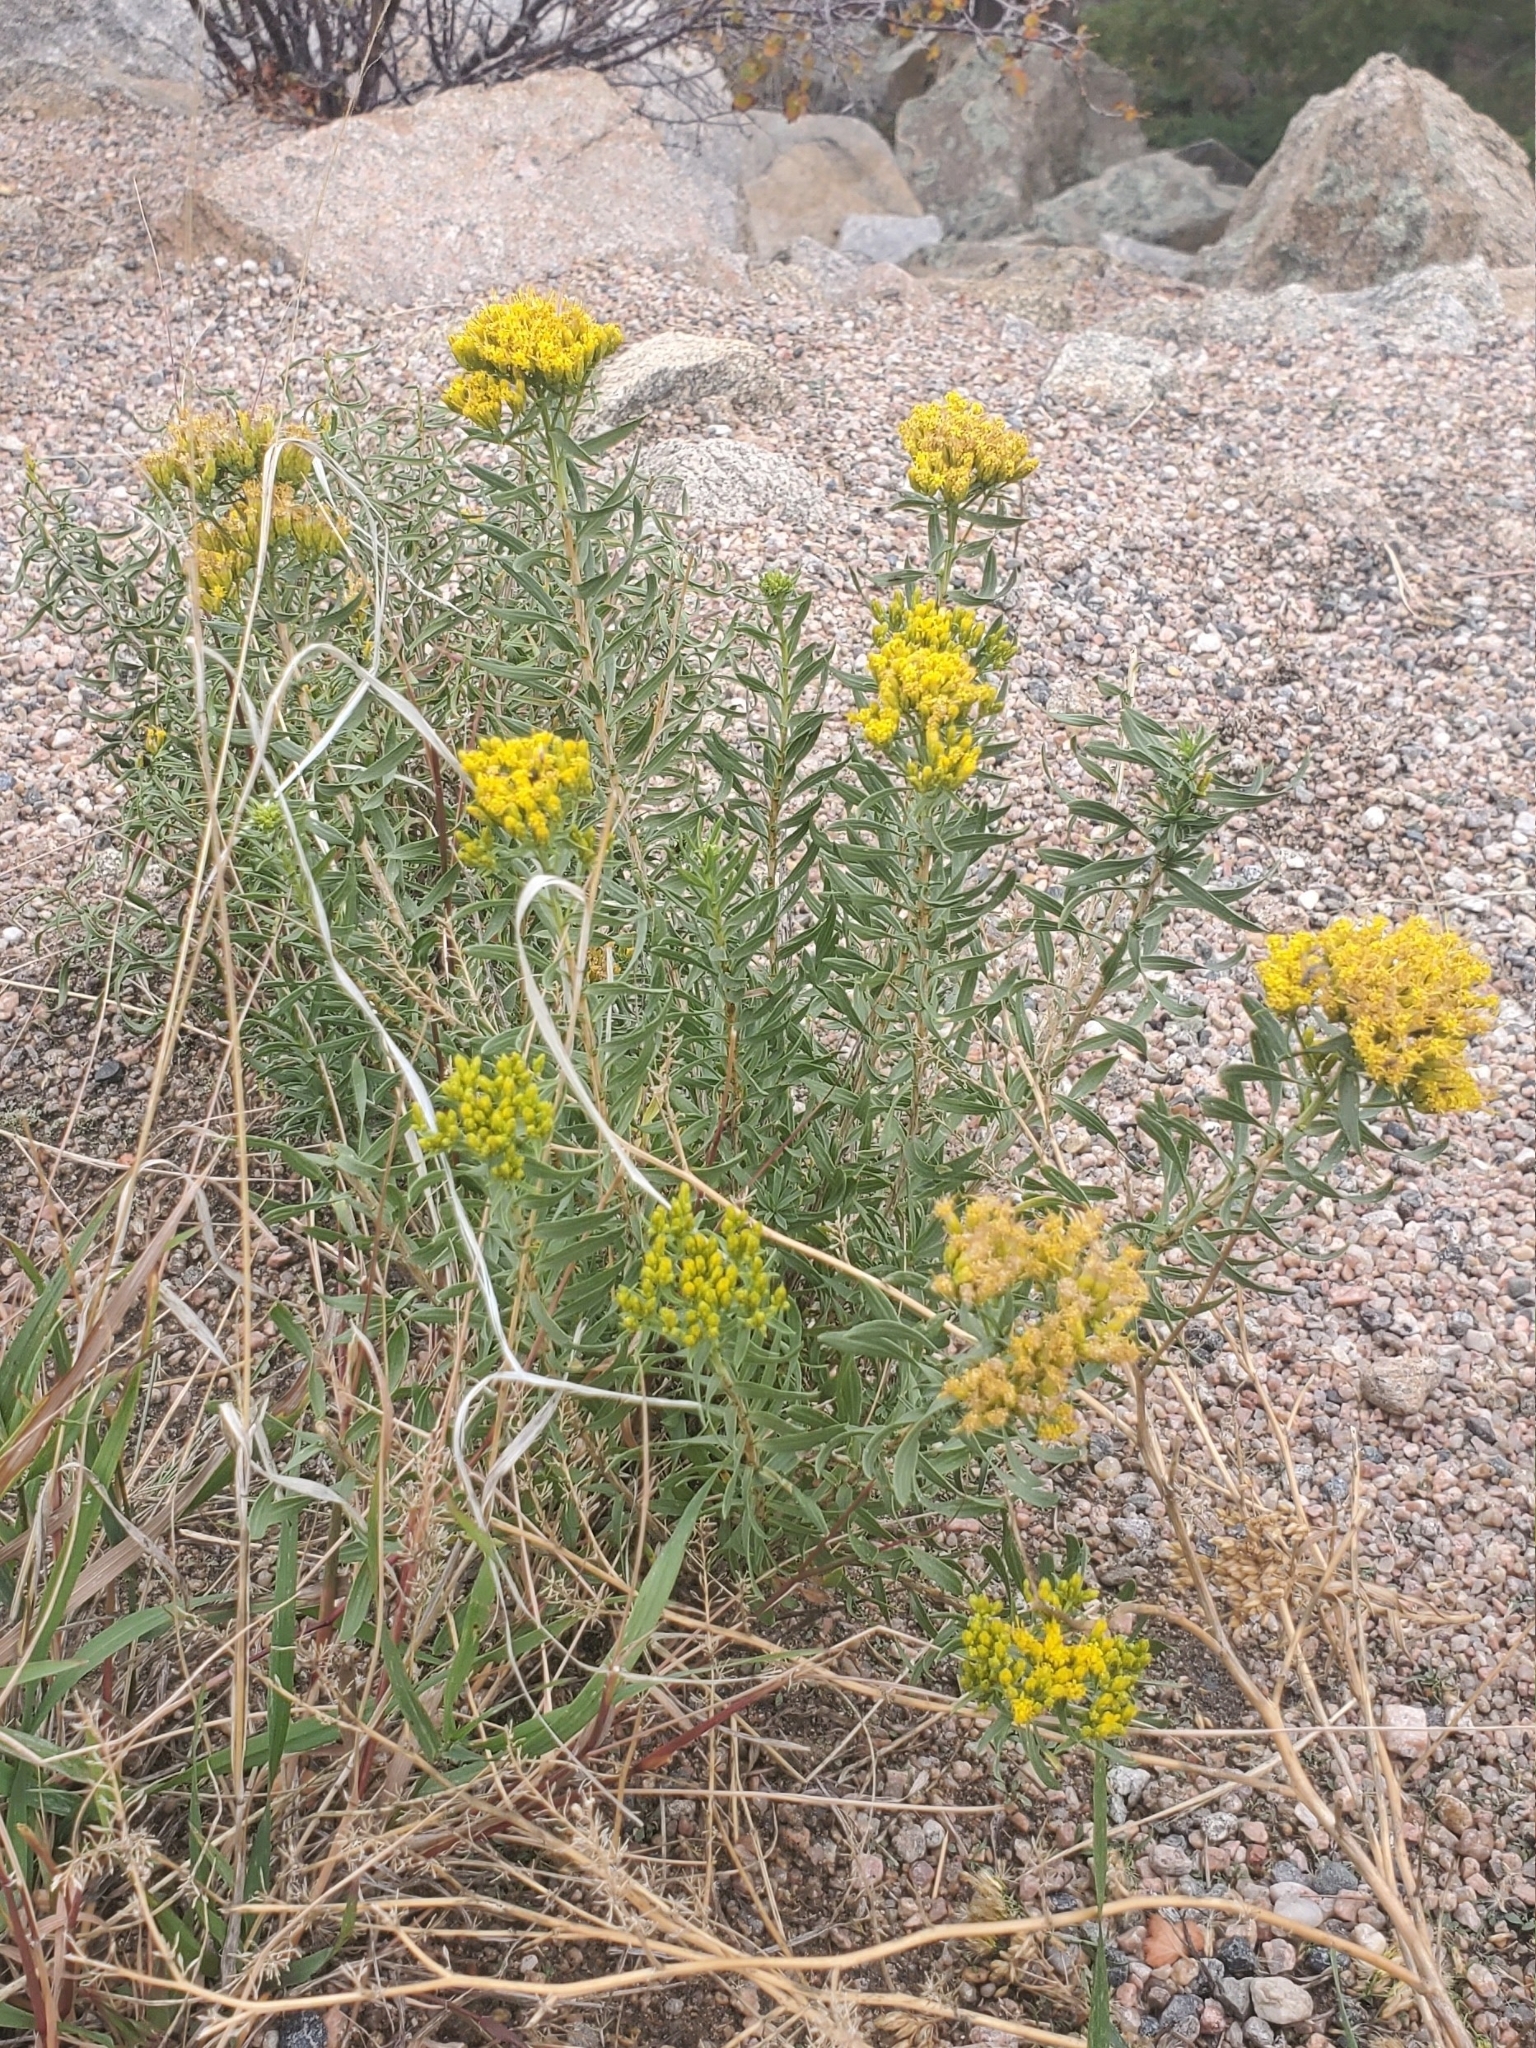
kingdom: Plantae
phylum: Tracheophyta
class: Magnoliopsida
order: Asterales
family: Asteraceae
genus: Chrysothamnus
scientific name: Chrysothamnus viscidiflorus
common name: Yellow rabbitbrush
